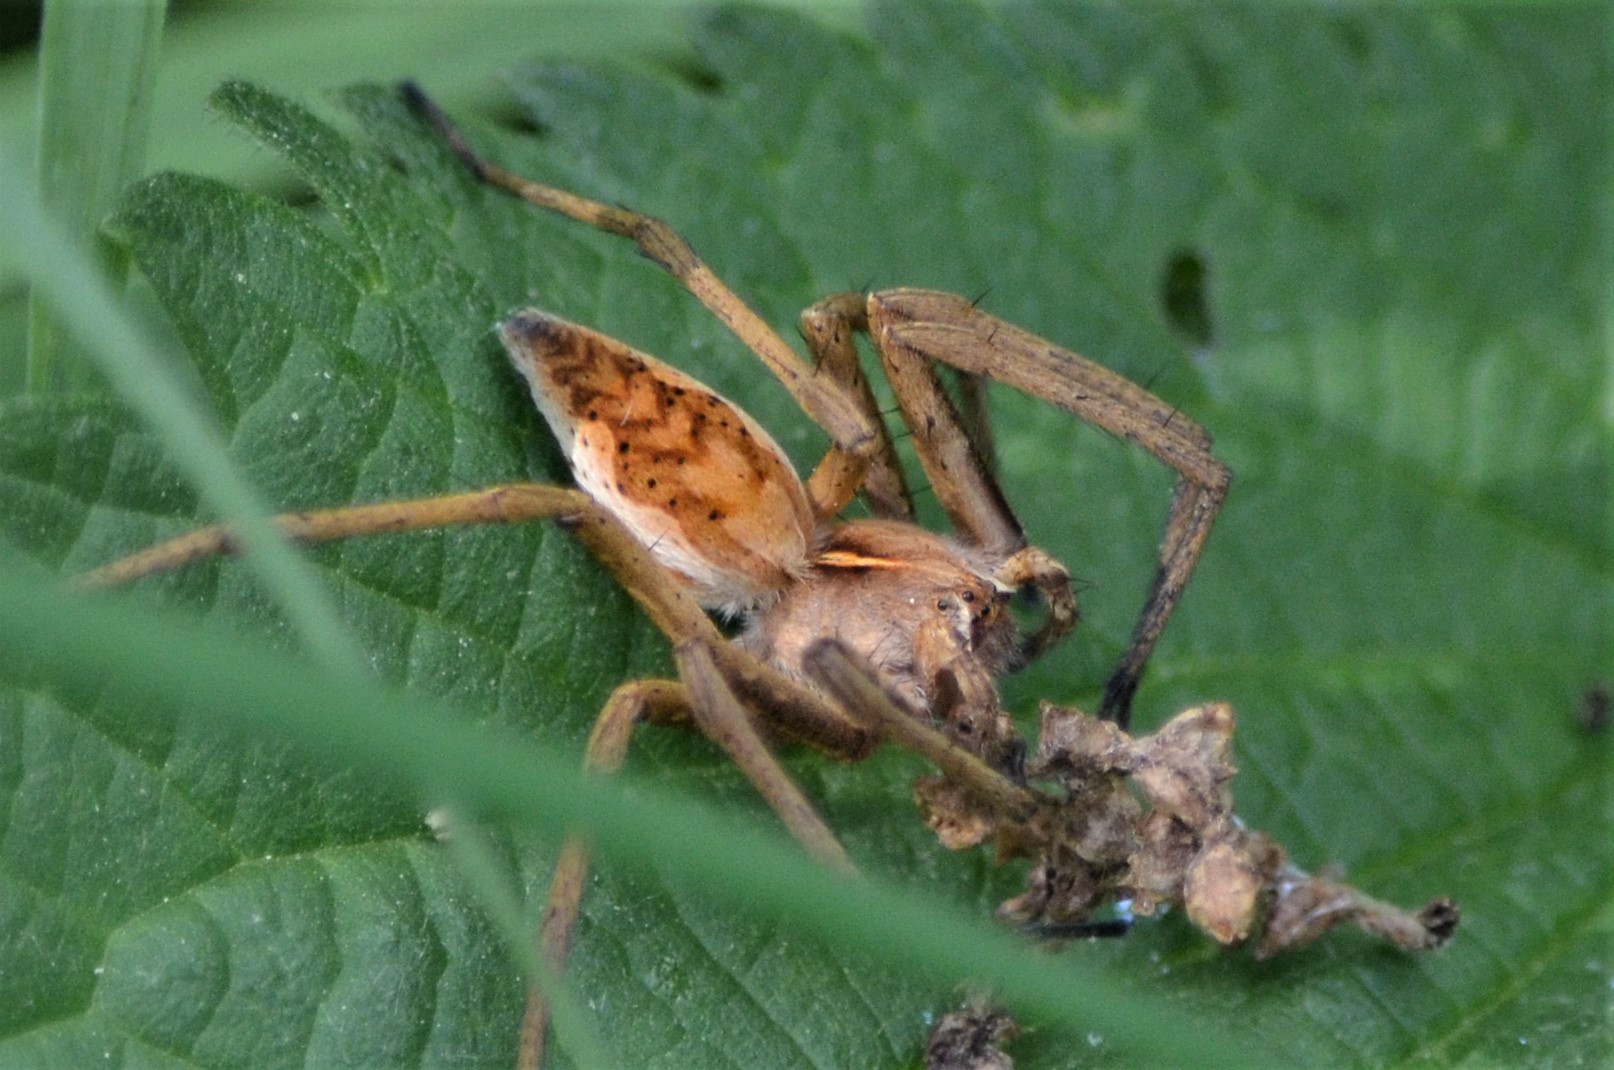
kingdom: Animalia
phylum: Arthropoda
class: Arachnida
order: Araneae
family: Pisauridae
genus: Pisaura
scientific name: Pisaura mirabilis
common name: Tent spider
